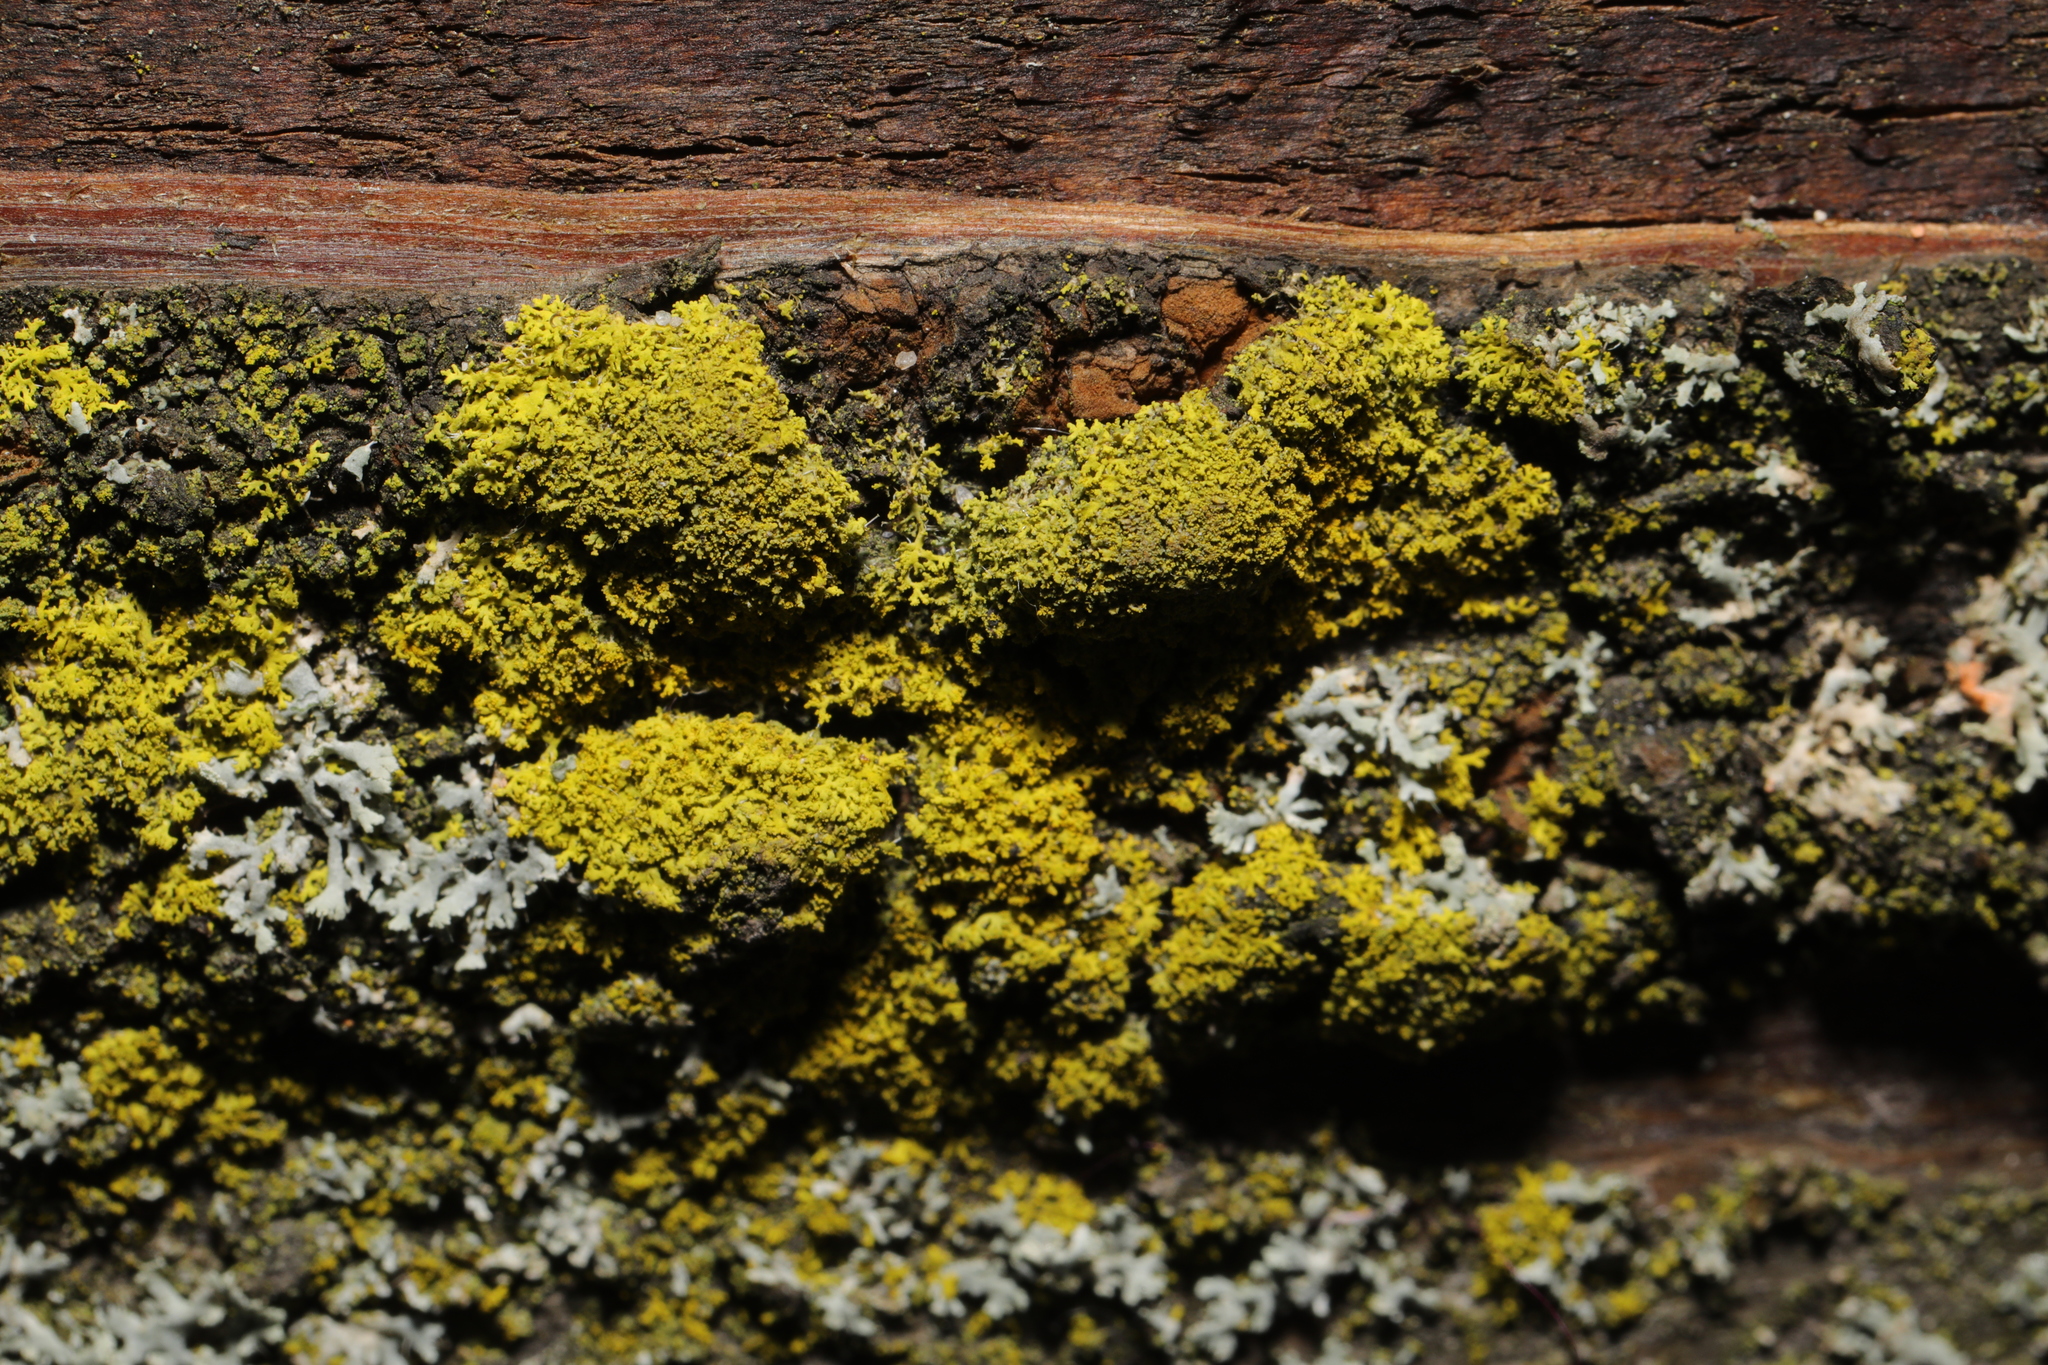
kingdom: Fungi
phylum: Ascomycota
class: Candelariomycetes
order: Candelariales
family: Candelariaceae
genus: Candelaria
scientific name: Candelaria
